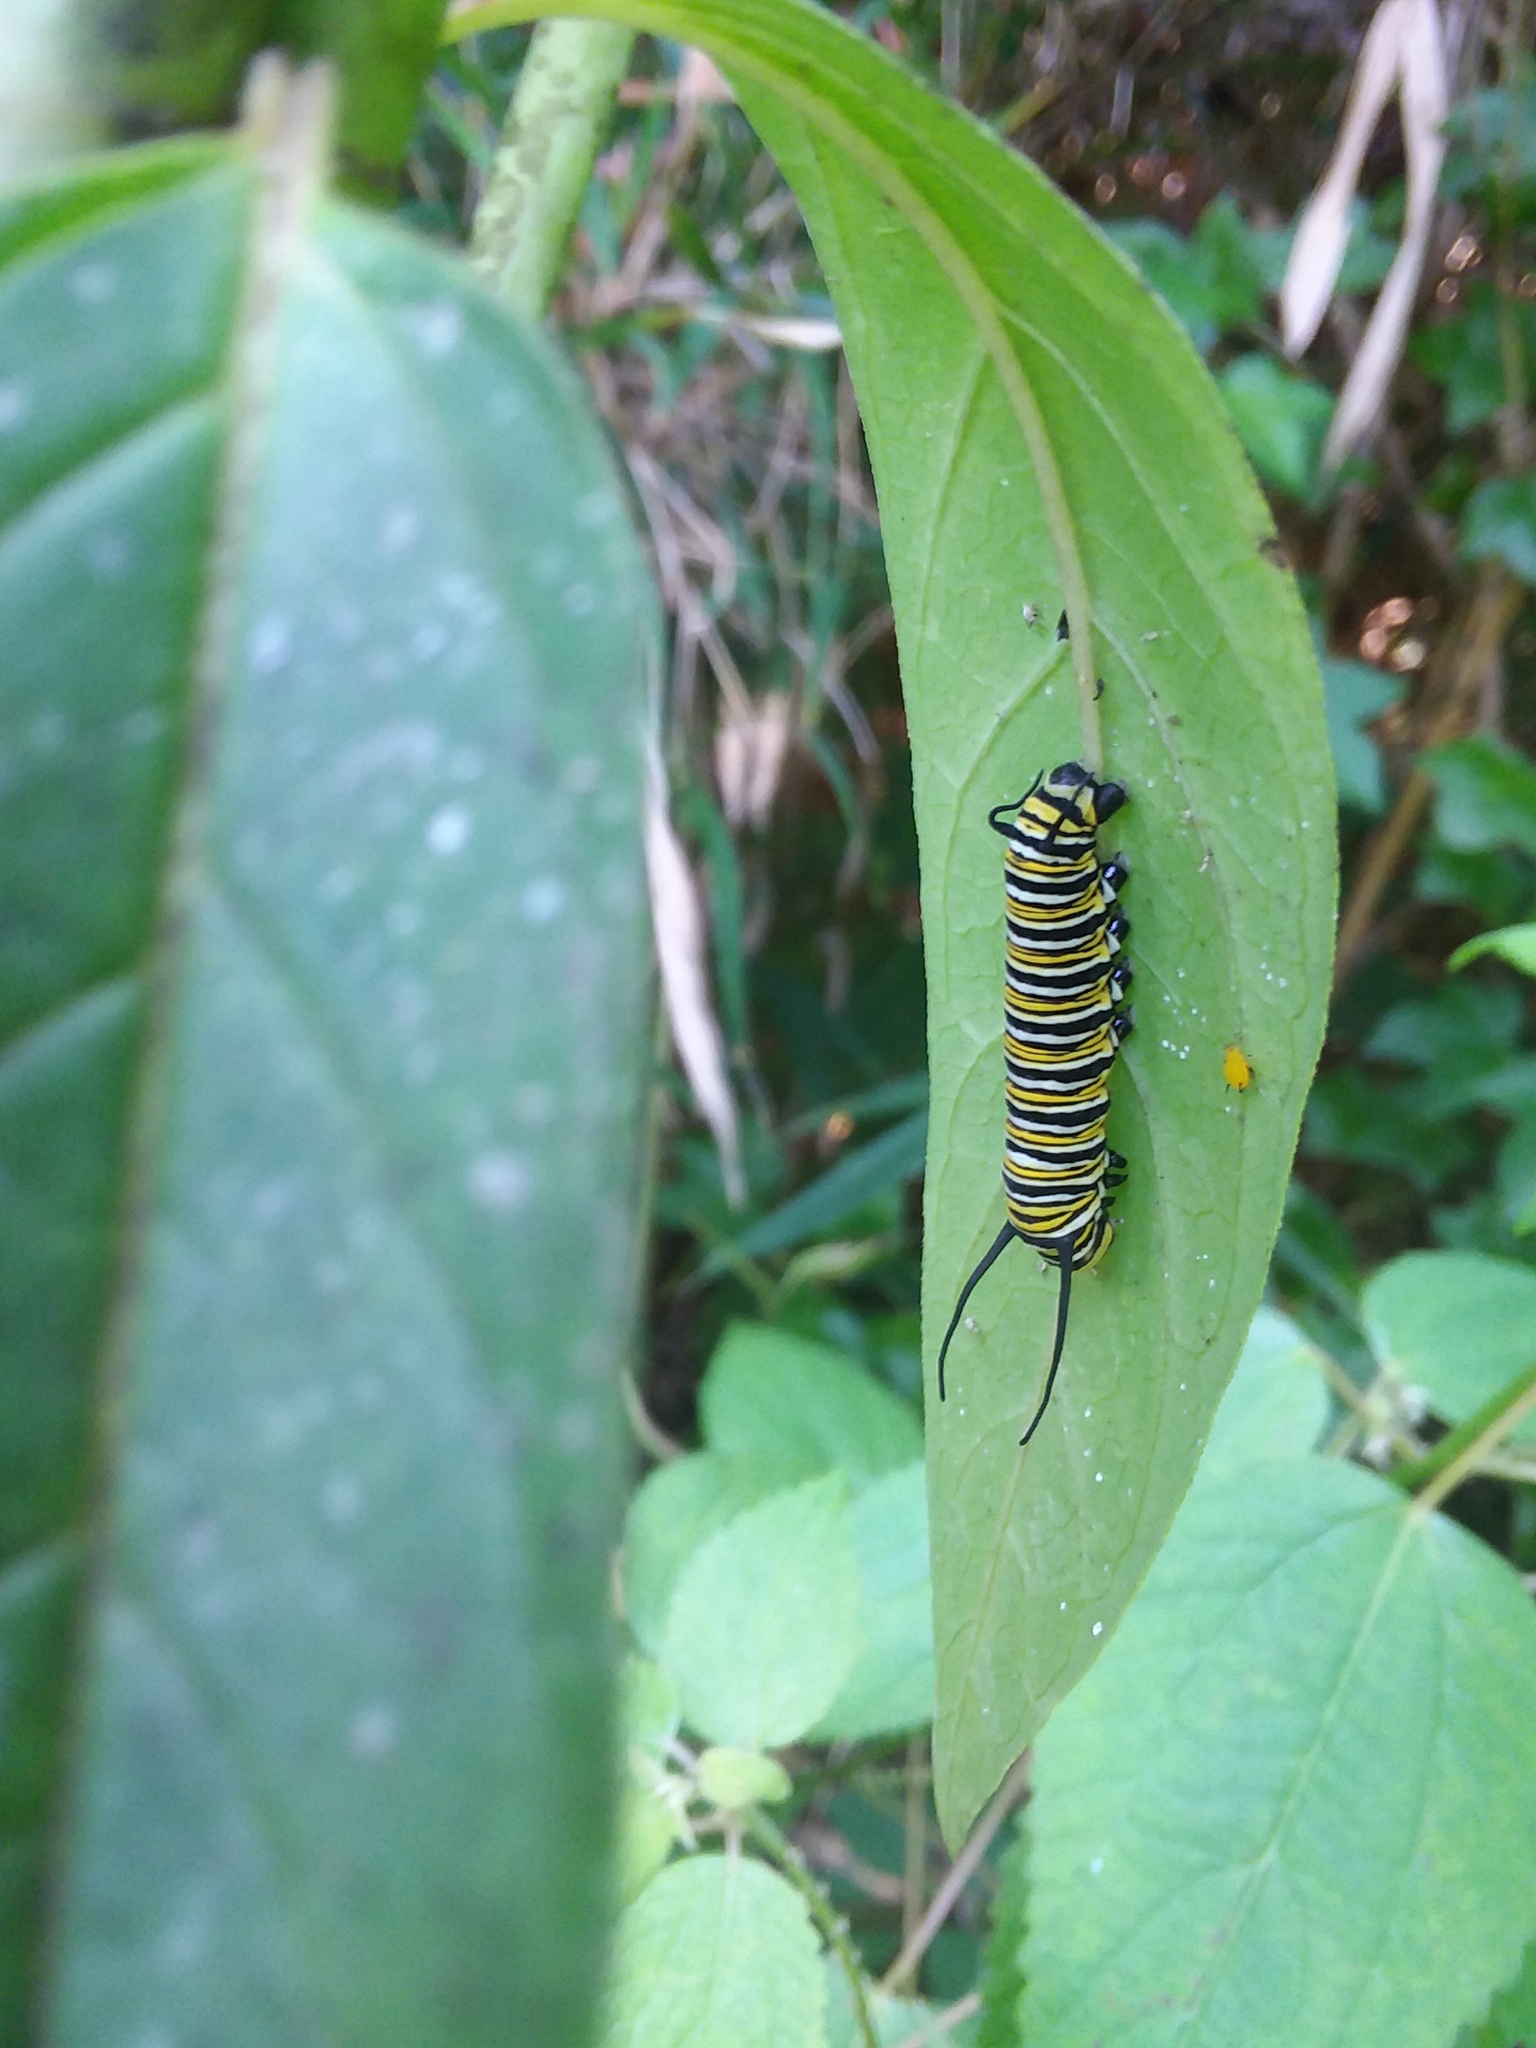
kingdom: Animalia
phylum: Arthropoda
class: Insecta
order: Lepidoptera
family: Nymphalidae
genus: Danaus
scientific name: Danaus plexippus
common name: Monarch
